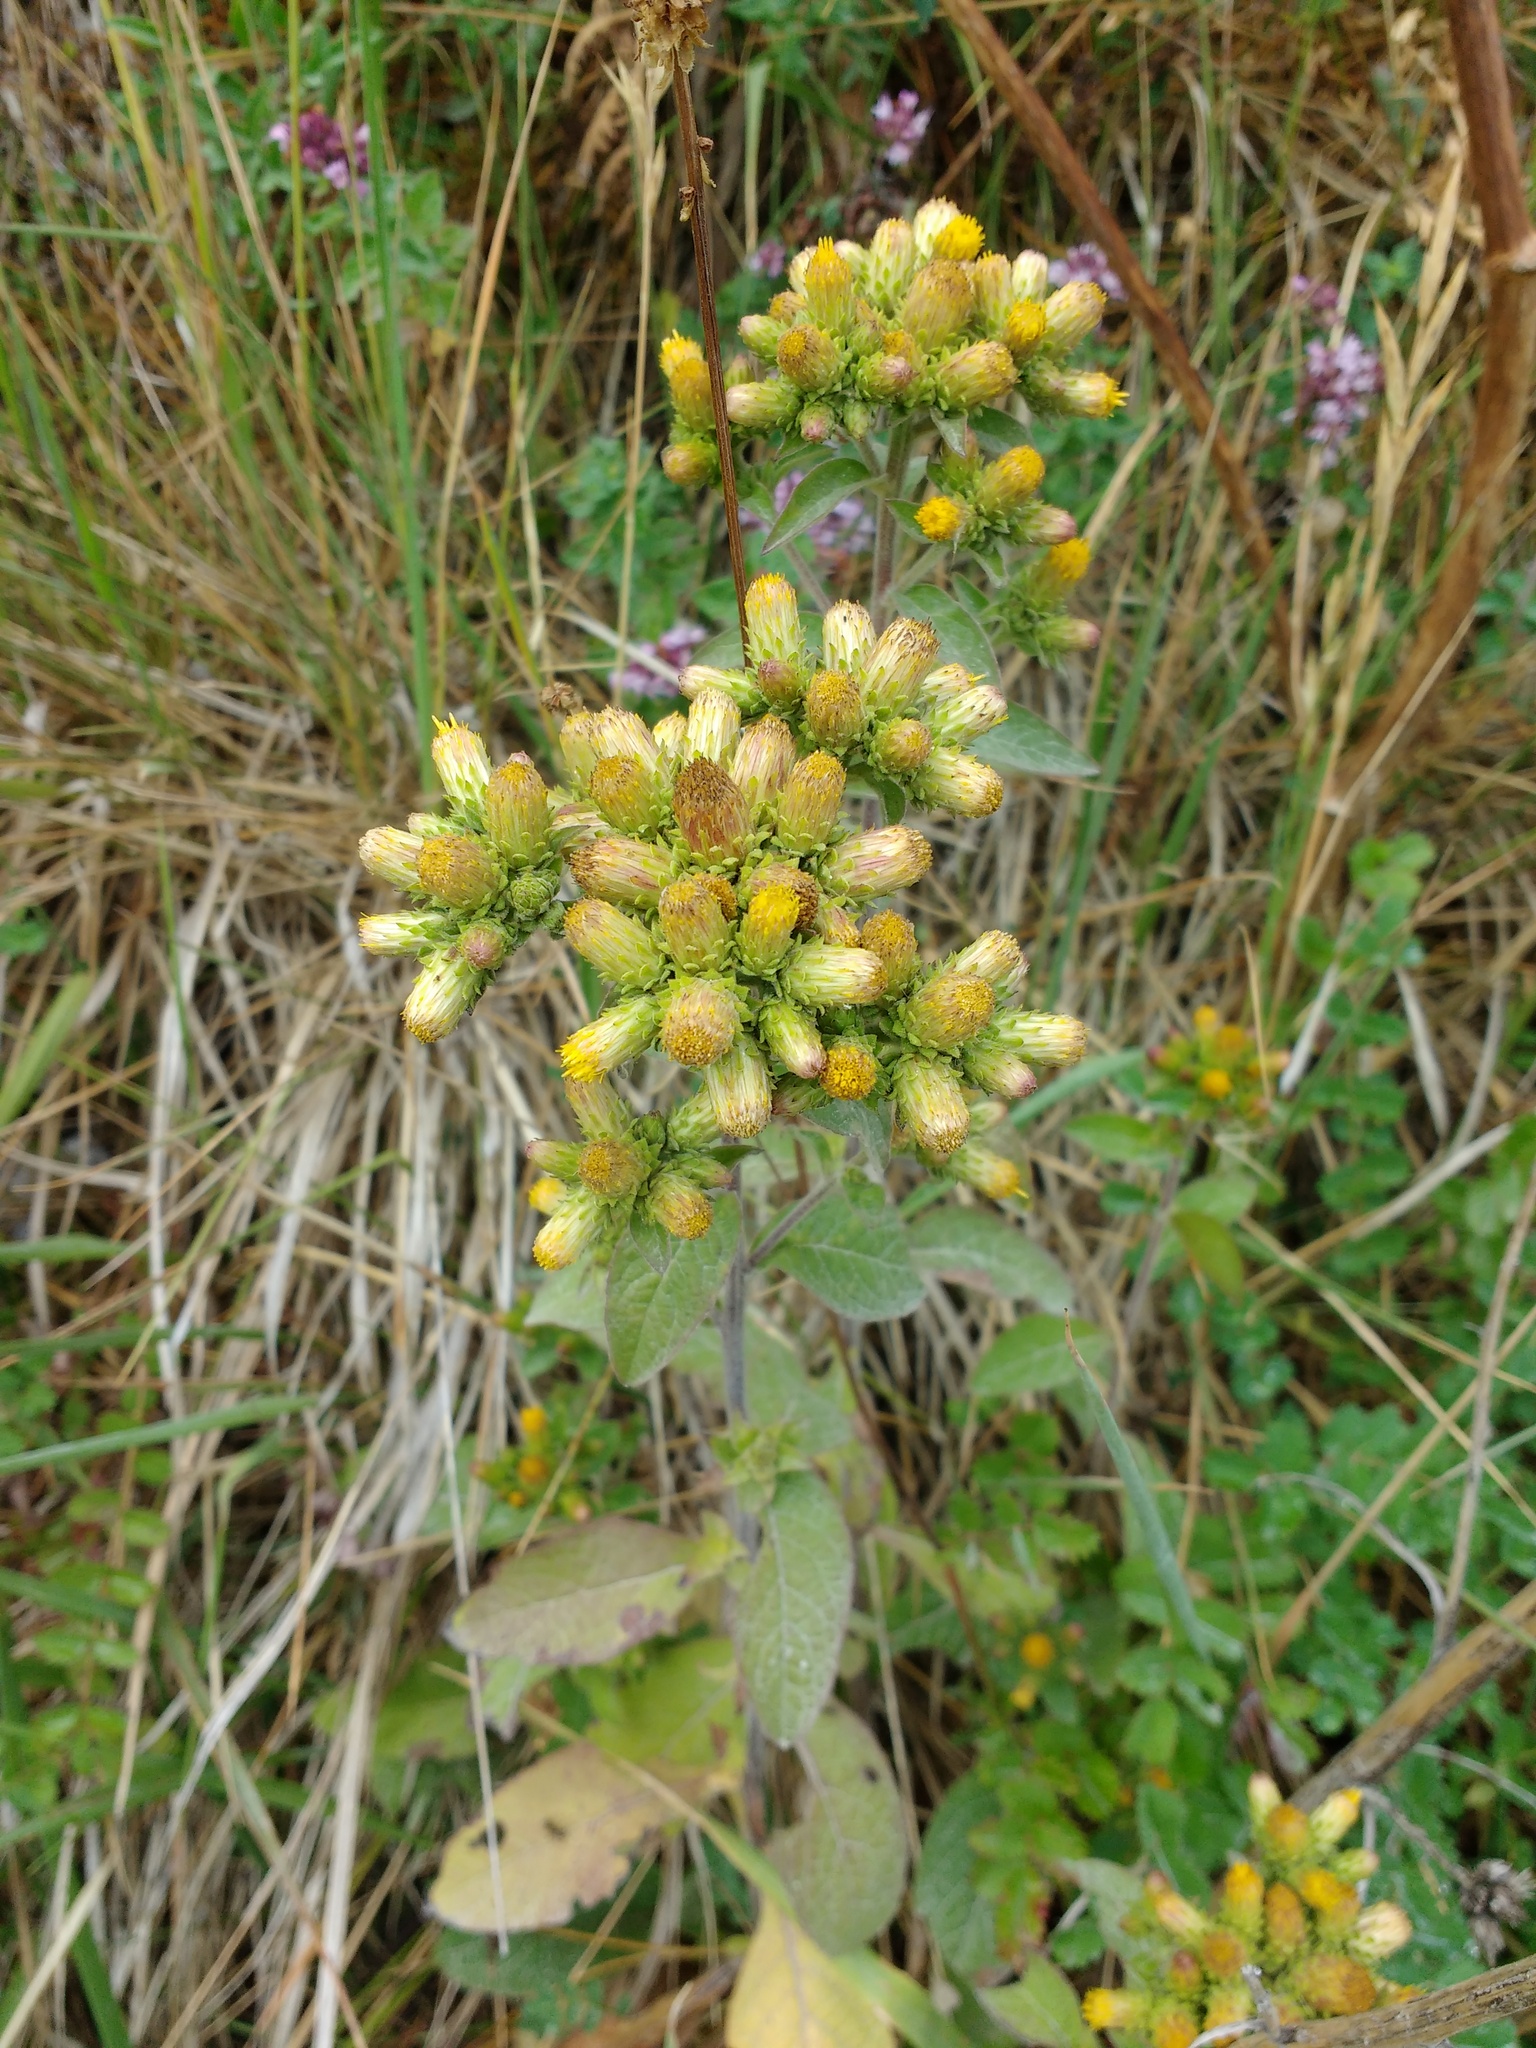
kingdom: Plantae
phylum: Tracheophyta
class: Magnoliopsida
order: Asterales
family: Asteraceae
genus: Pentanema
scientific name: Pentanema squarrosum
